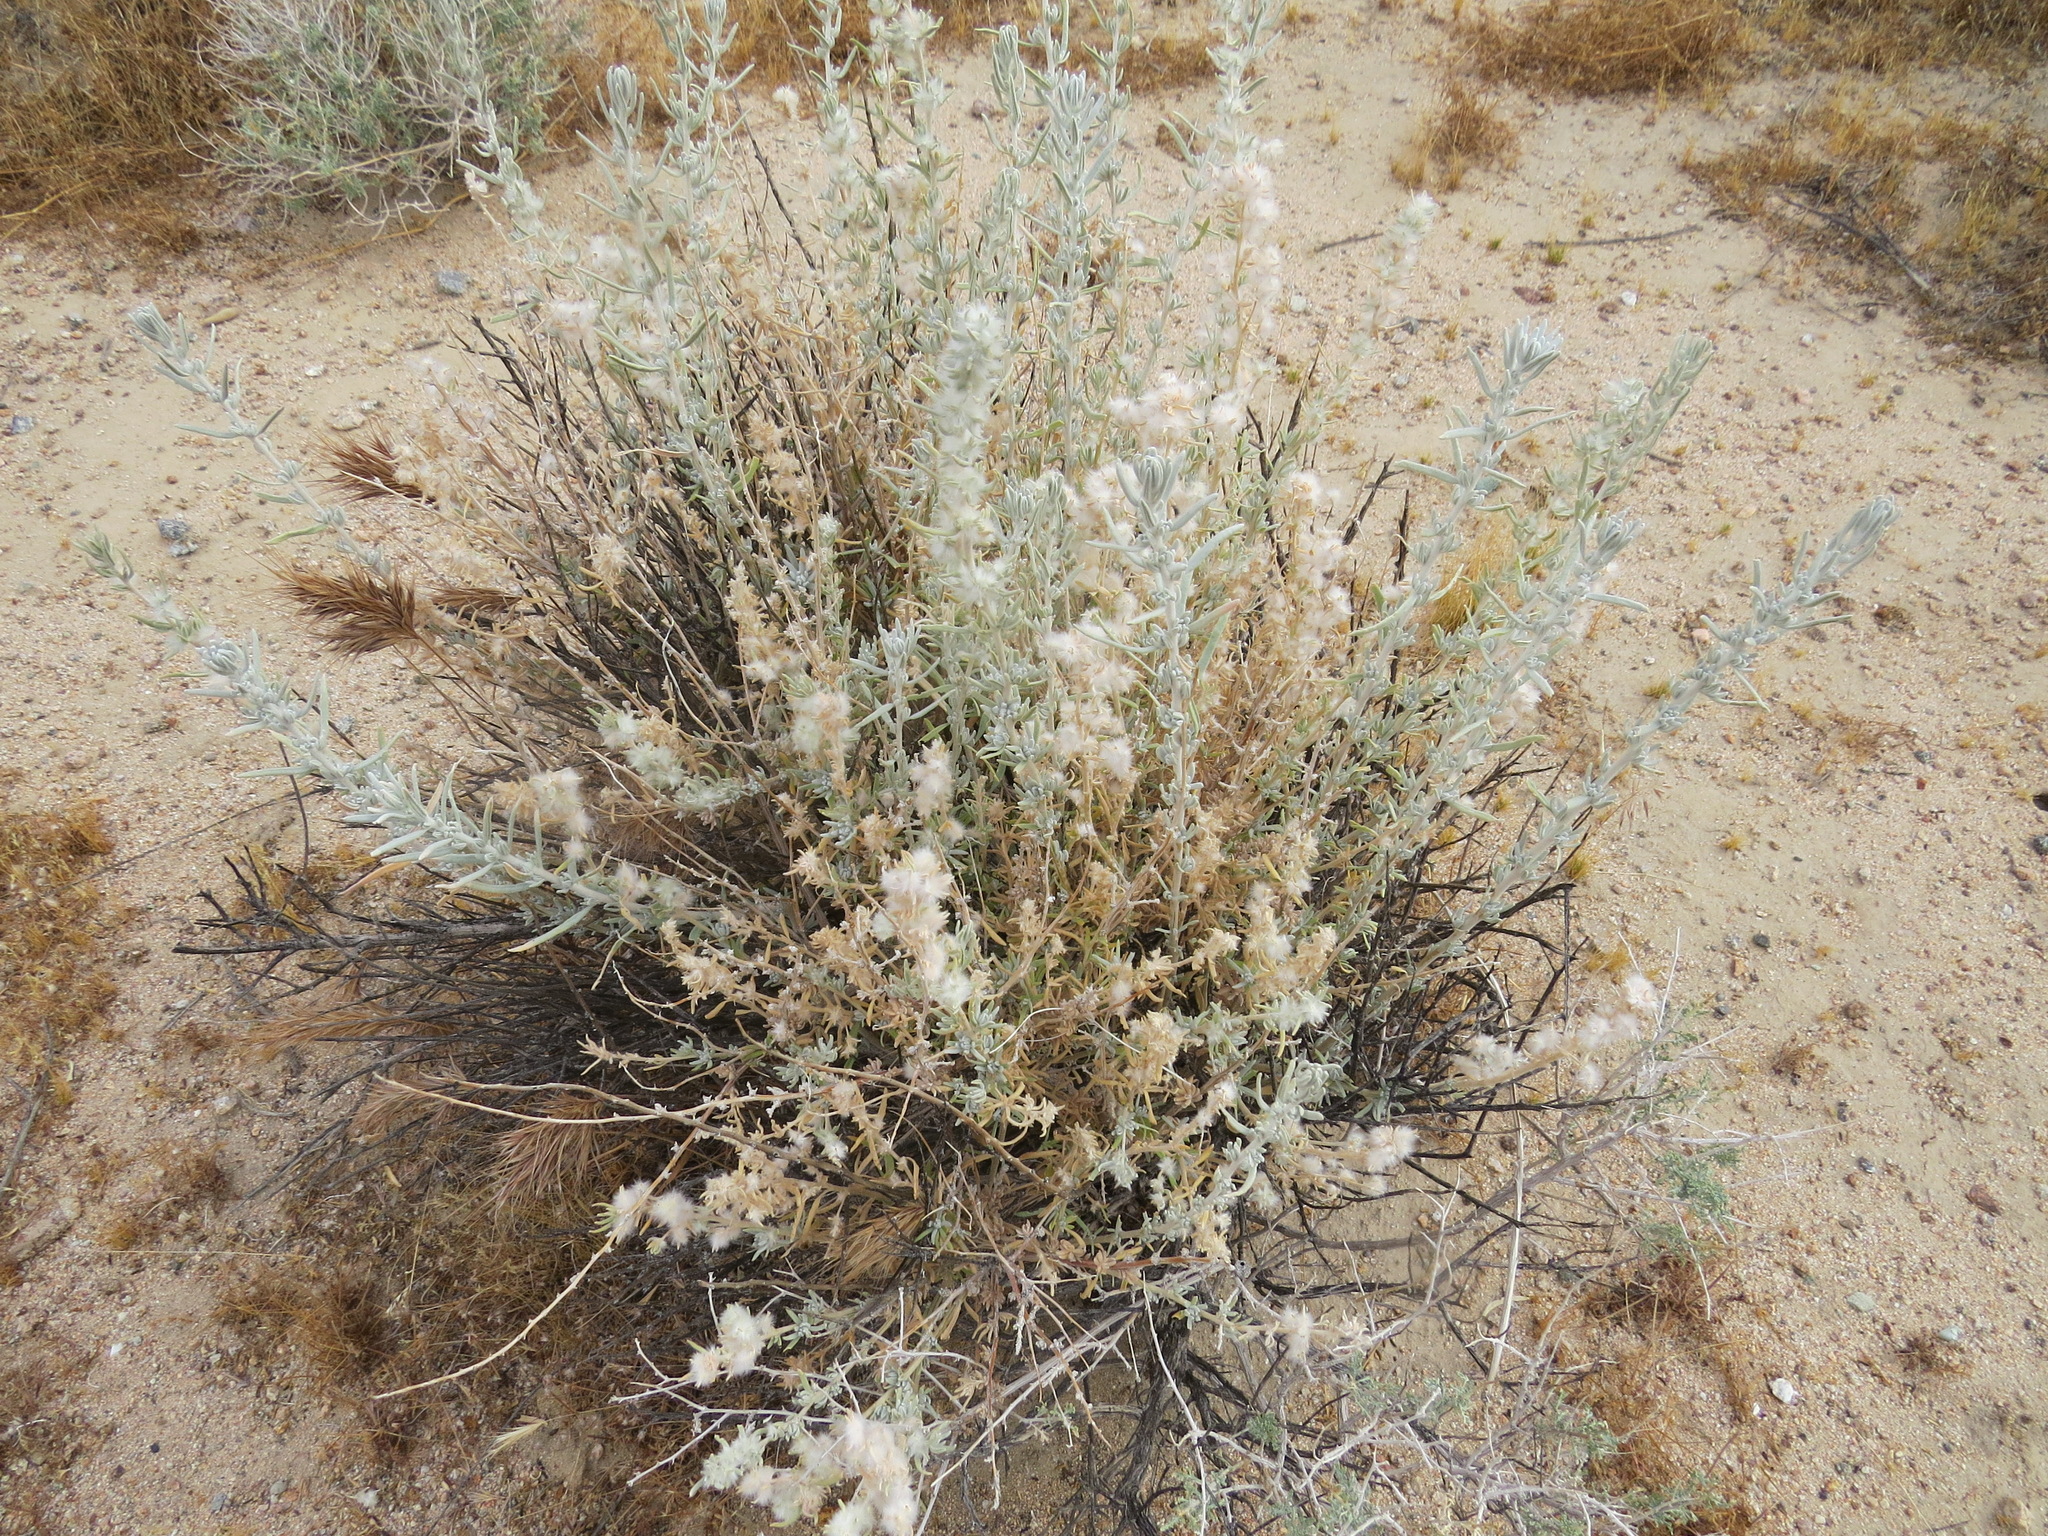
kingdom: Plantae
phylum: Tracheophyta
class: Magnoliopsida
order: Caryophyllales
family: Amaranthaceae
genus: Krascheninnikovia
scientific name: Krascheninnikovia lanata
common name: Winterfat
